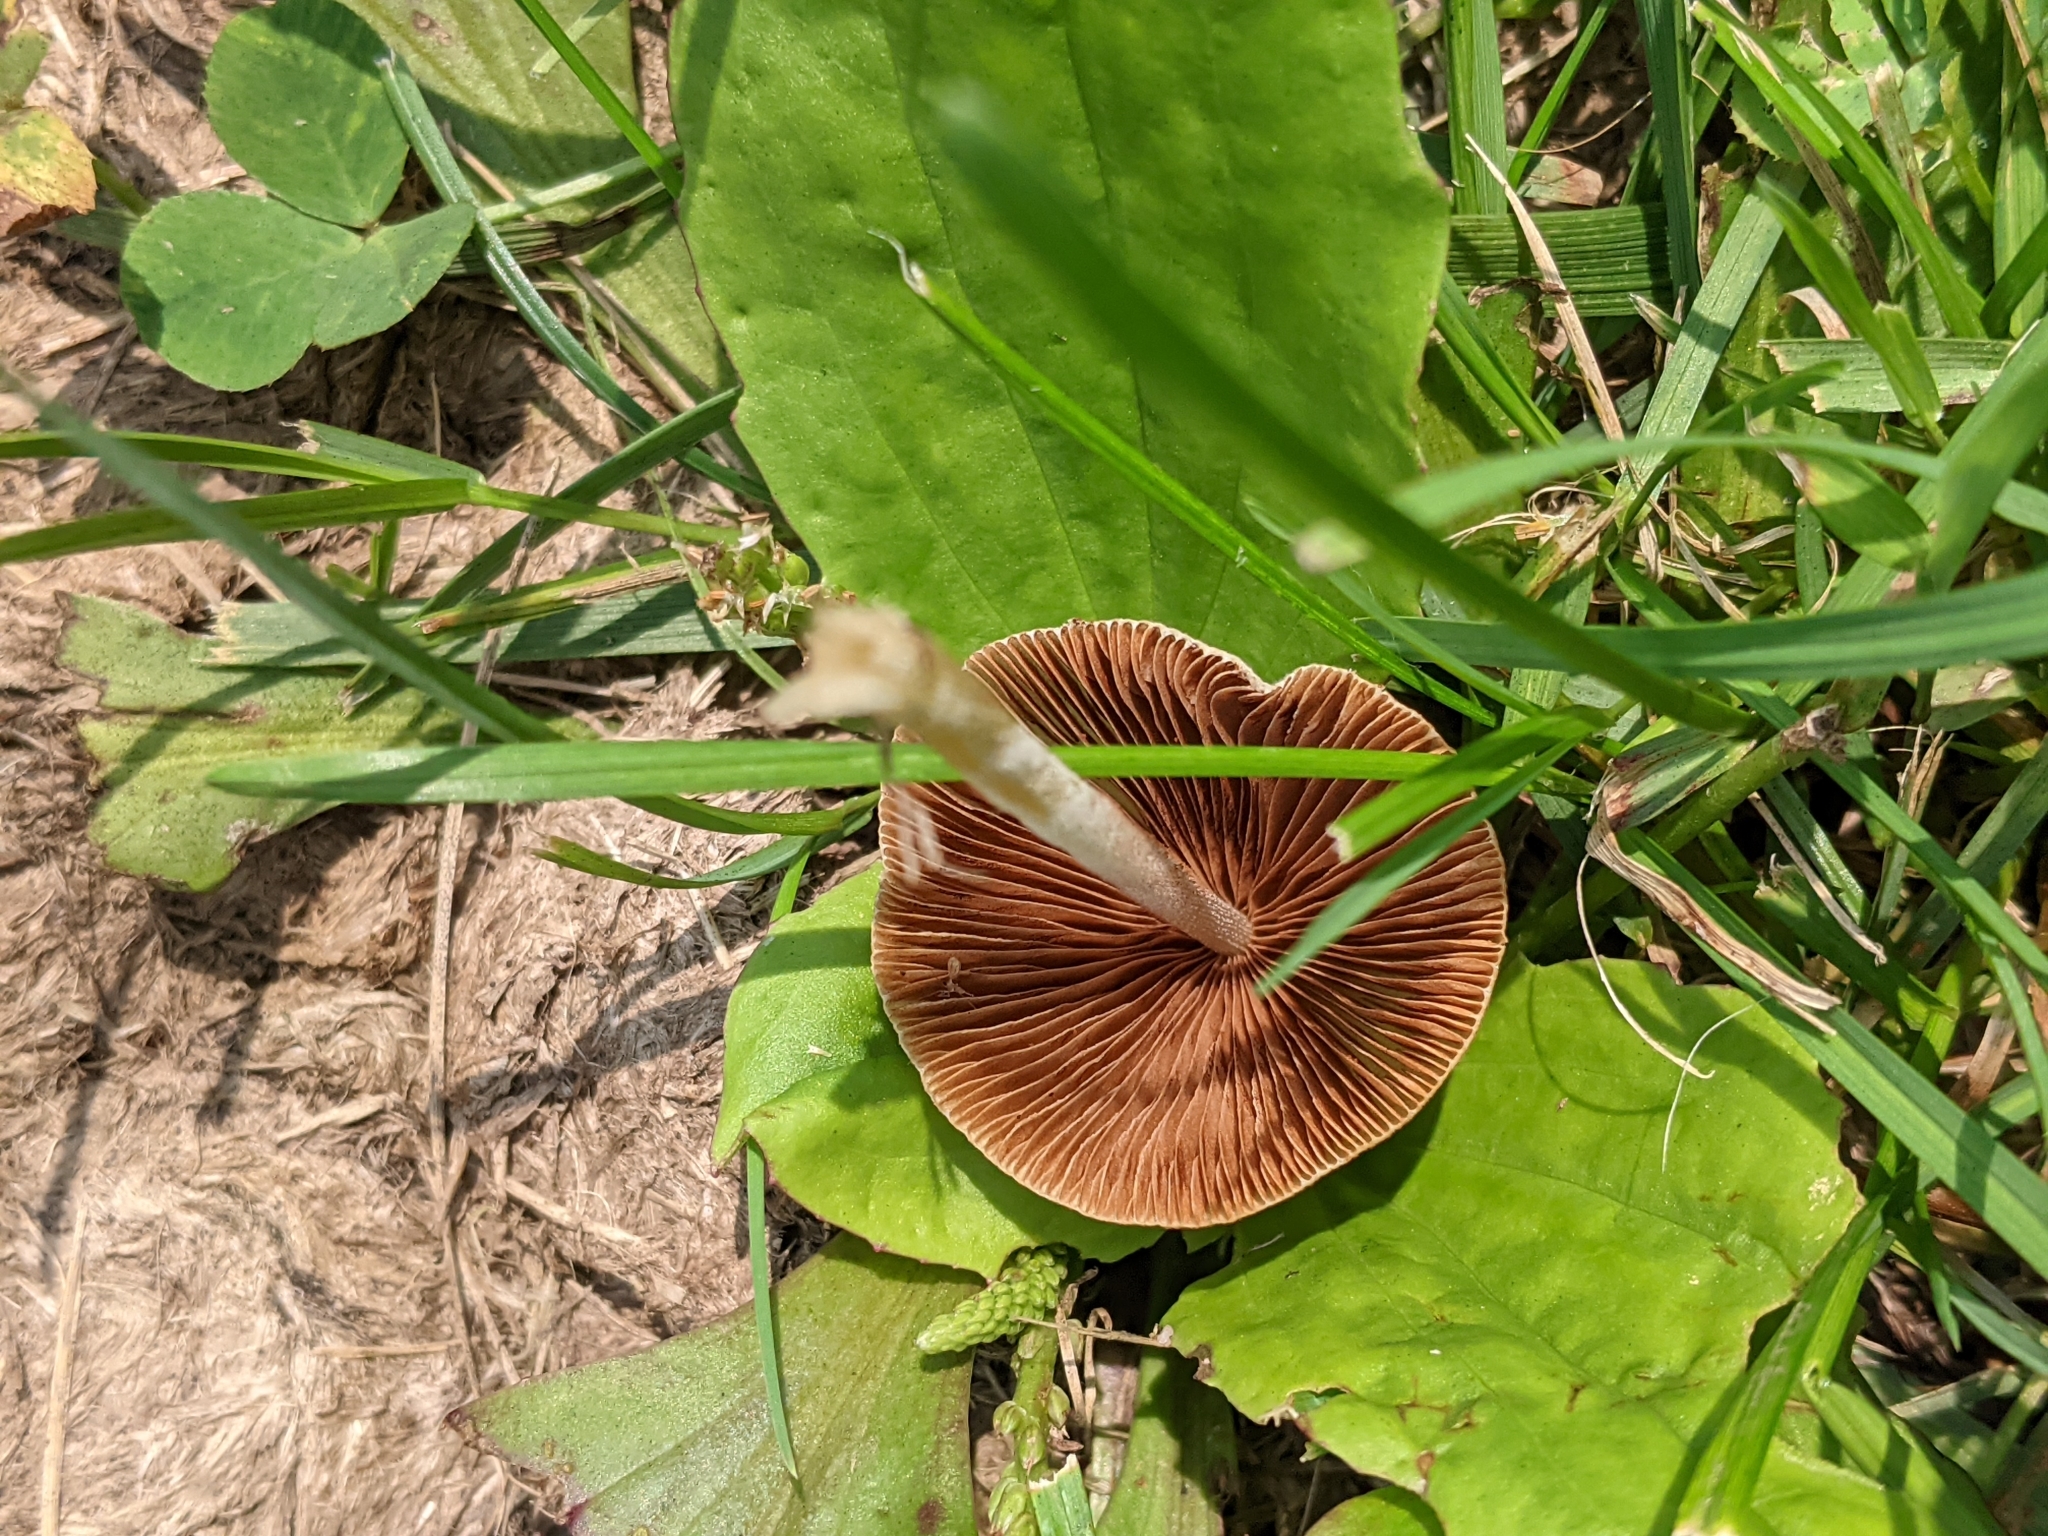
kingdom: Fungi
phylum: Basidiomycota
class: Agaricomycetes
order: Agaricales
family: Bolbitiaceae
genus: Conocybe
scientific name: Conocybe apala
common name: Milky conecap
